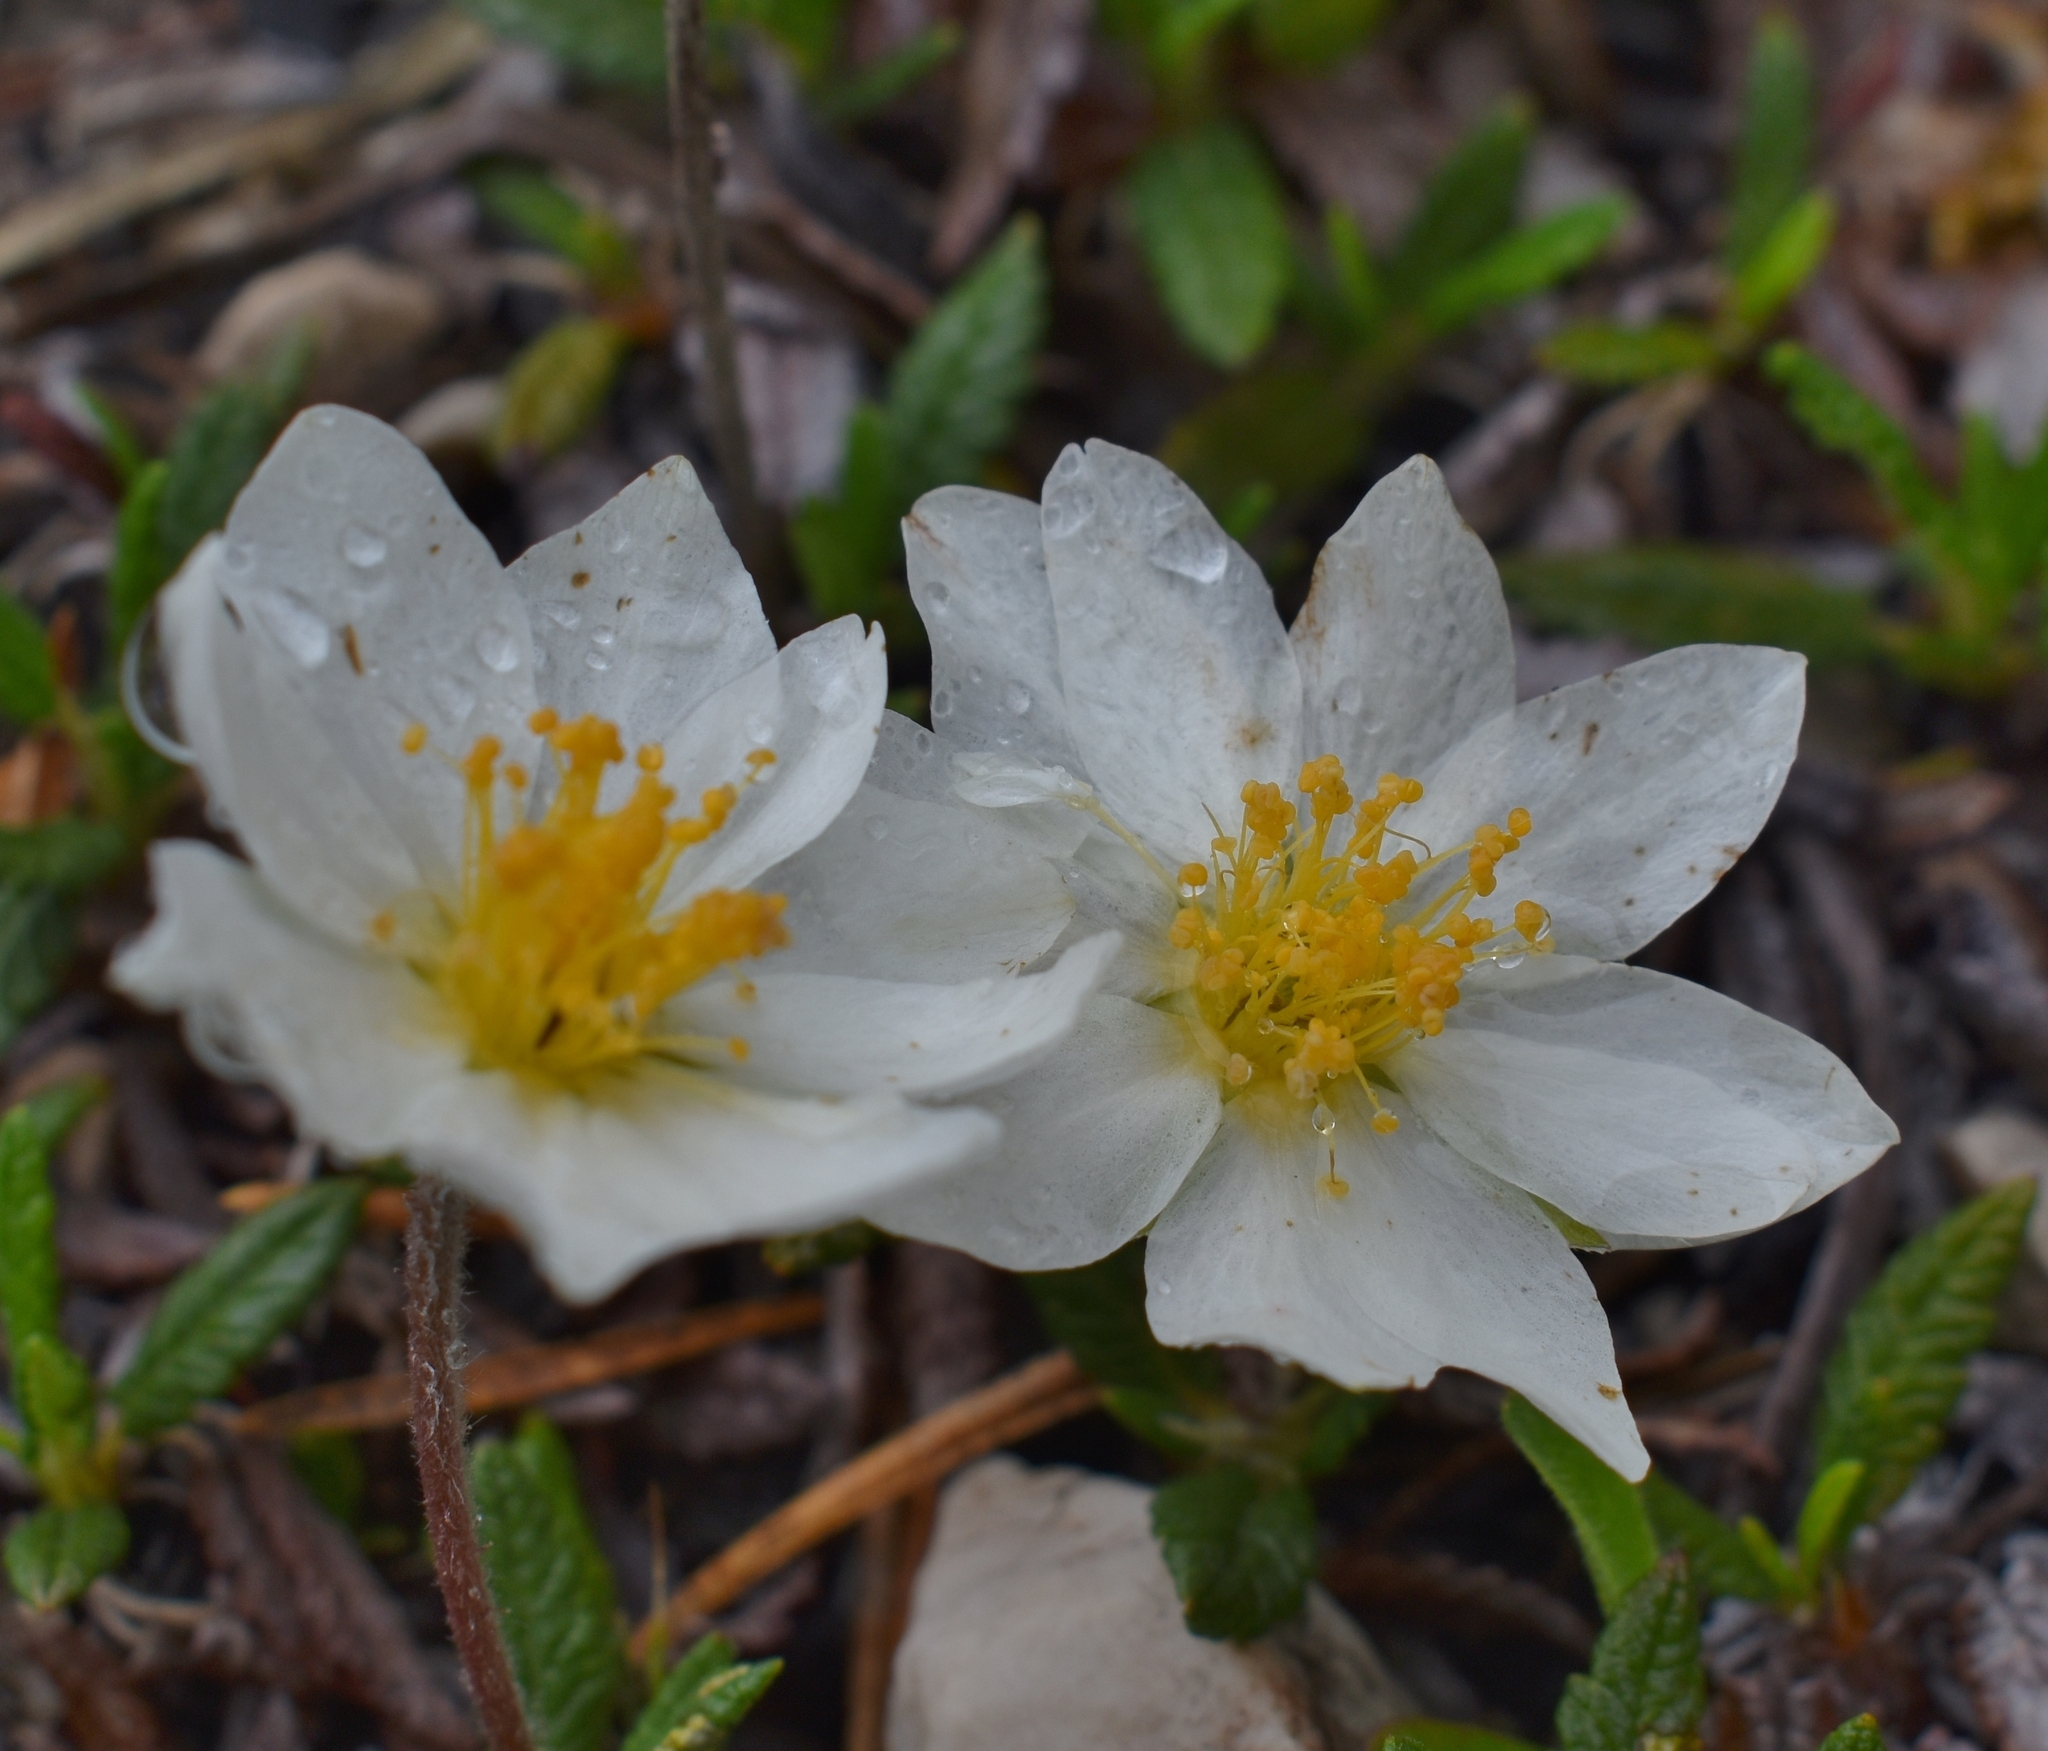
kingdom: Plantae
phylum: Tracheophyta
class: Magnoliopsida
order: Rosales
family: Rosaceae
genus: Dryas
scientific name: Dryas octopetala
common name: Eight-petal mountain-avens
